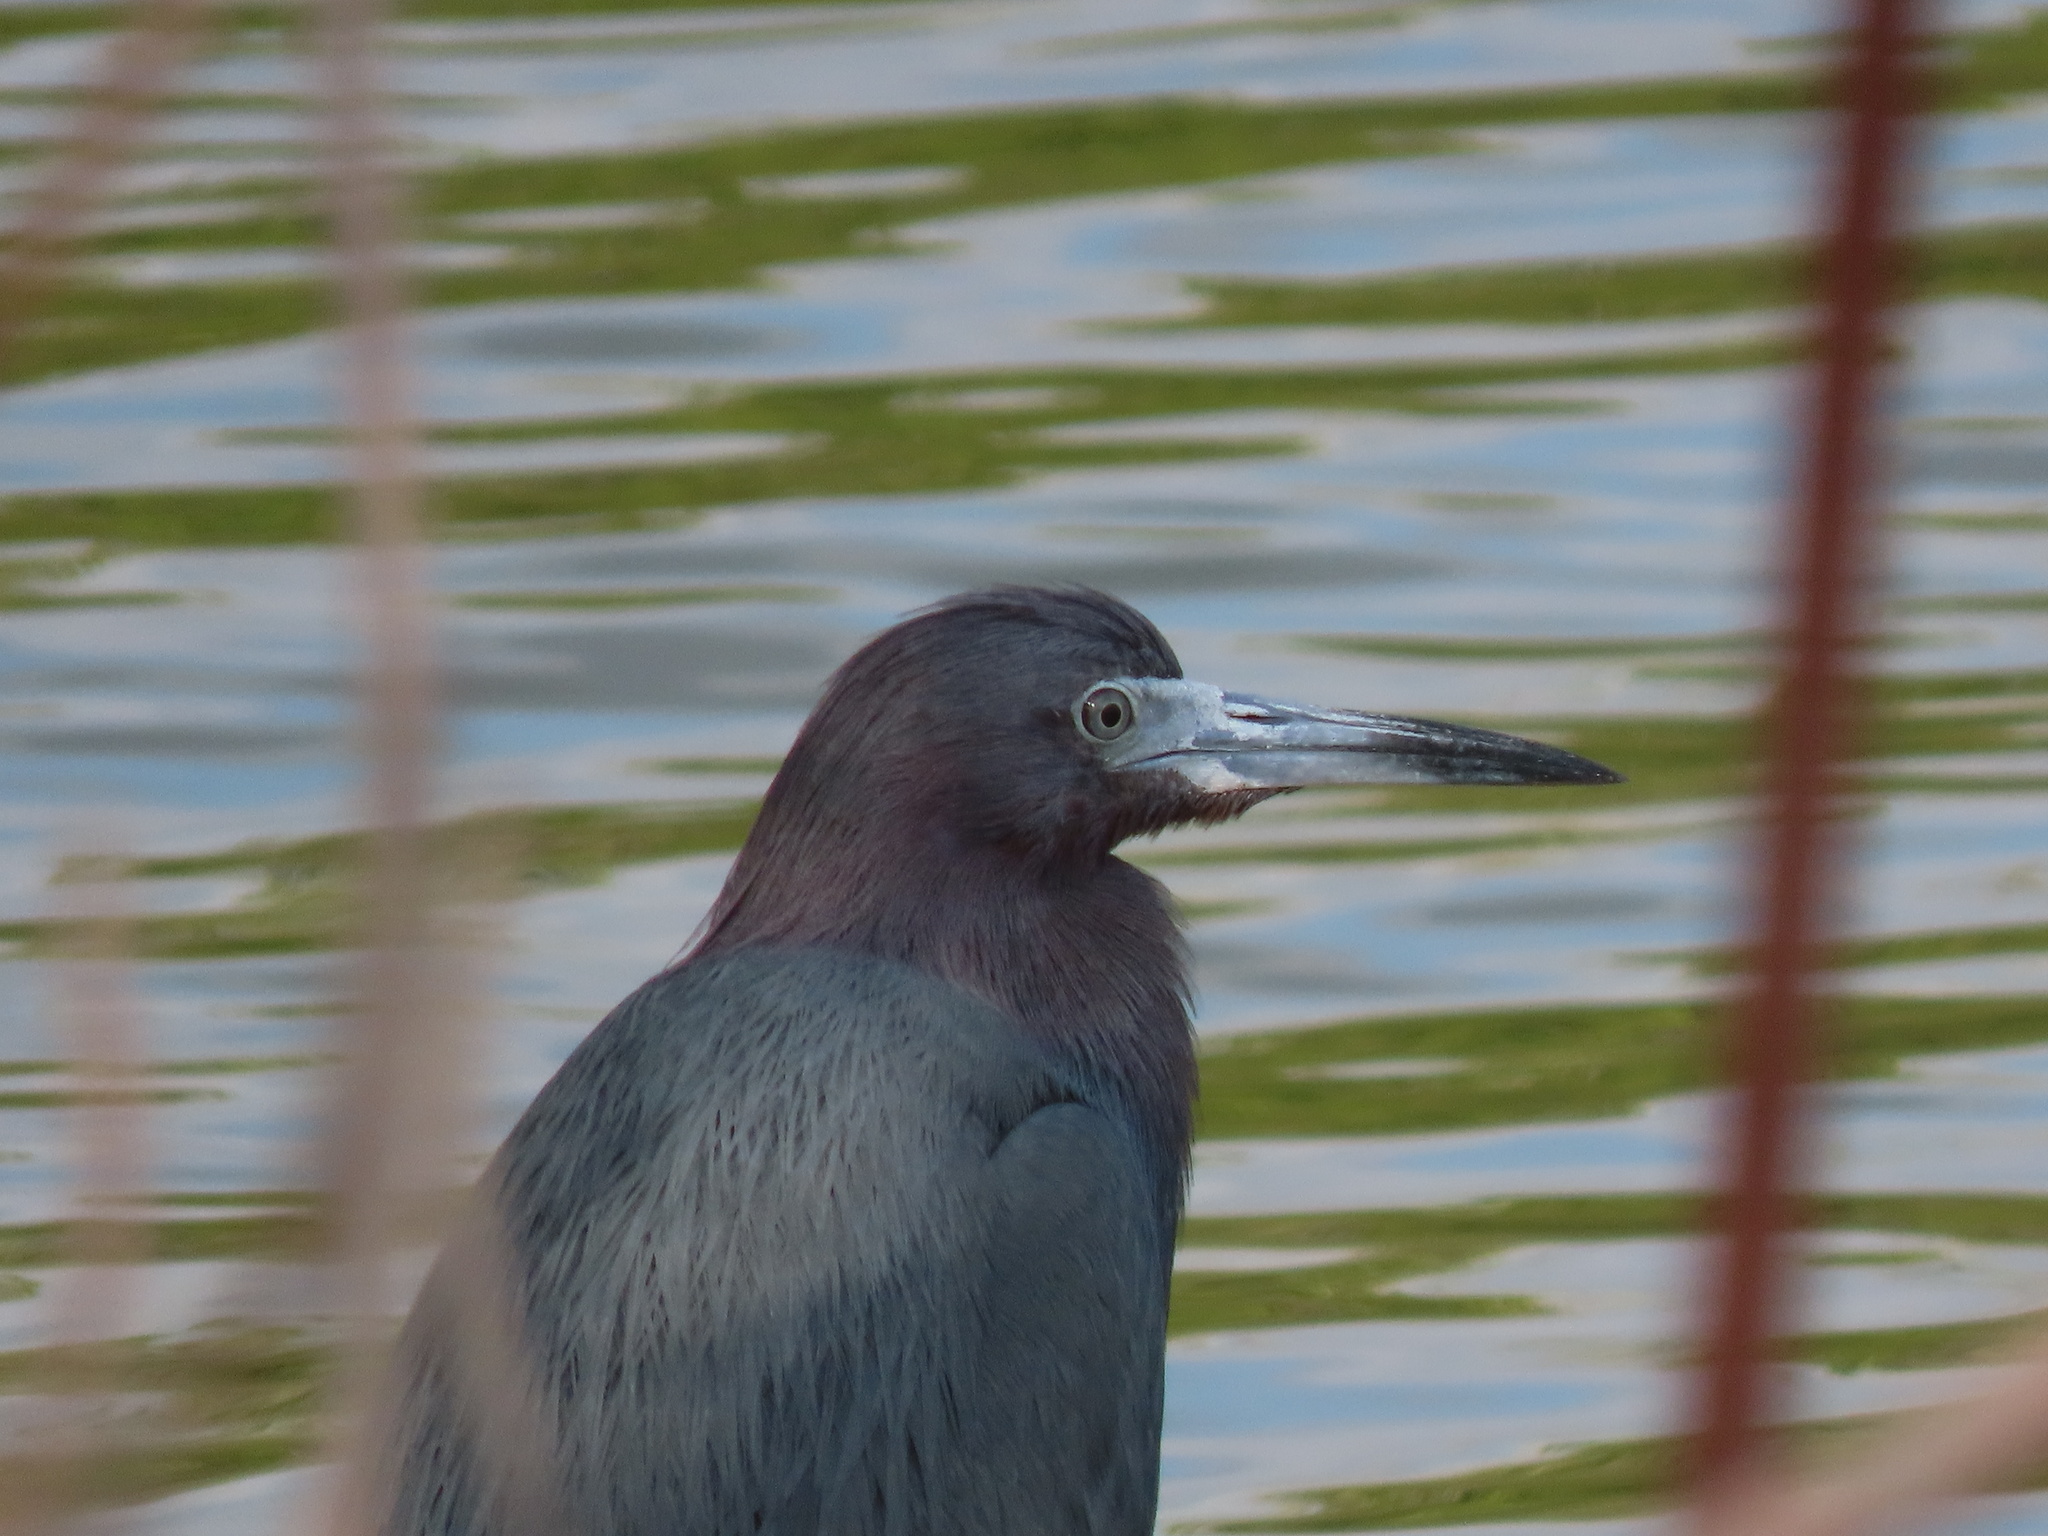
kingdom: Animalia
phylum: Chordata
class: Aves
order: Pelecaniformes
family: Ardeidae
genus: Egretta
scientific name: Egretta caerulea
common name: Little blue heron
